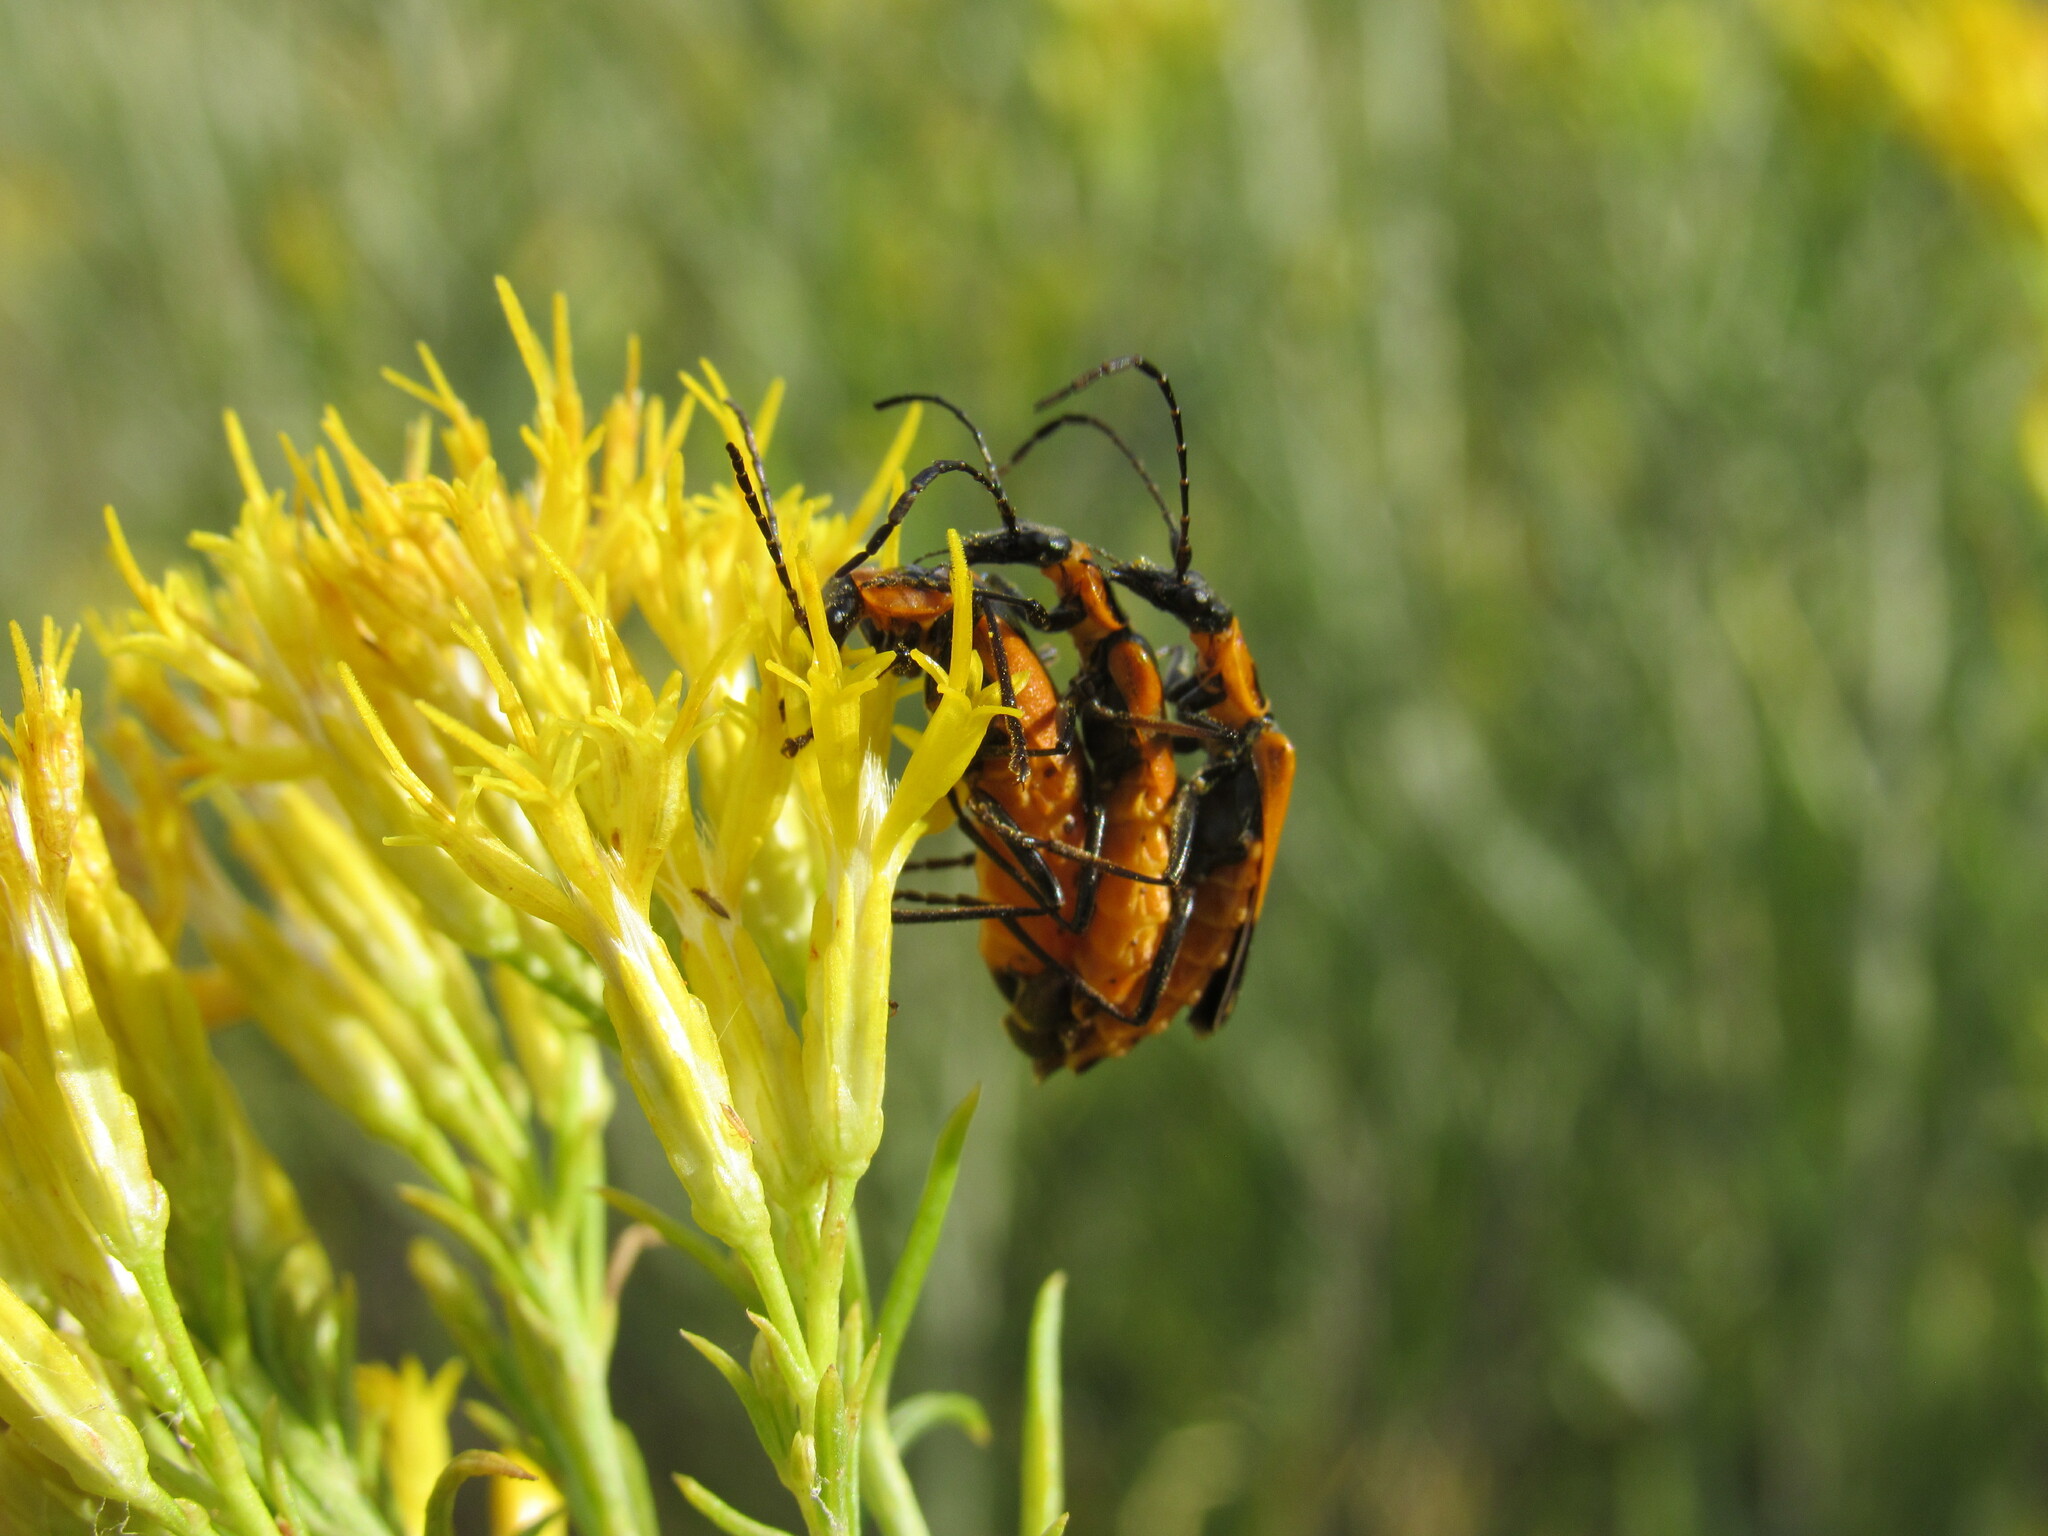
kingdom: Animalia
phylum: Arthropoda
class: Insecta
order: Coleoptera
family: Cantharidae
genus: Chauliognathus
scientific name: Chauliognathus basalis
